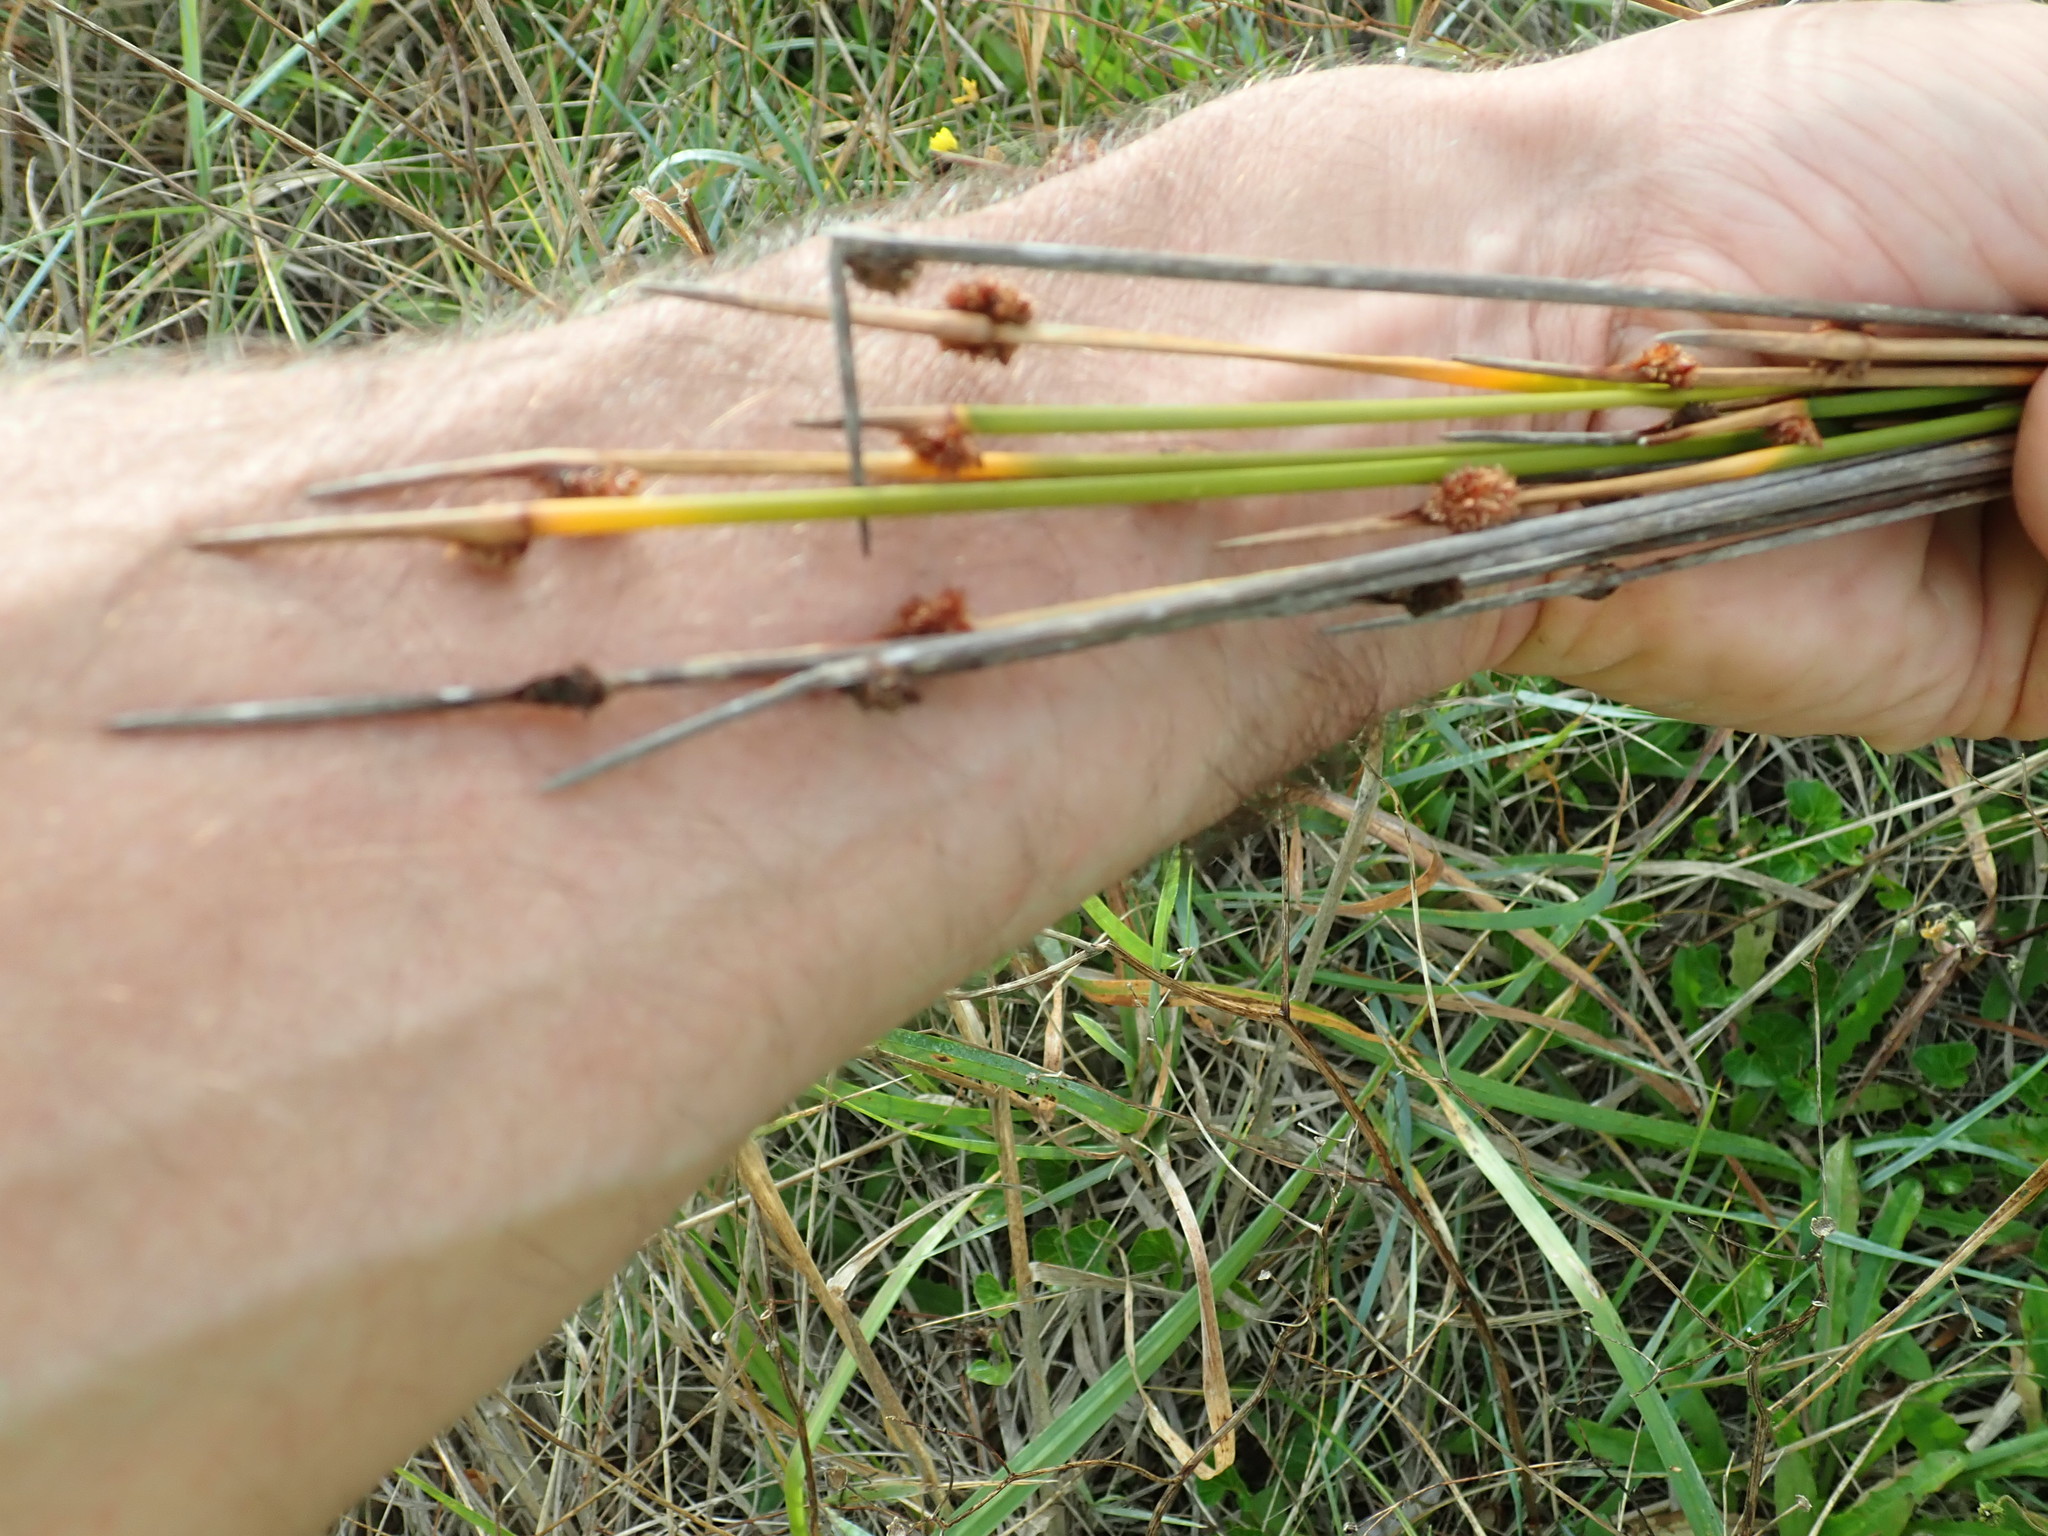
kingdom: Plantae
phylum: Tracheophyta
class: Liliopsida
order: Poales
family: Cyperaceae
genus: Ficinia
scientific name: Ficinia nodosa
